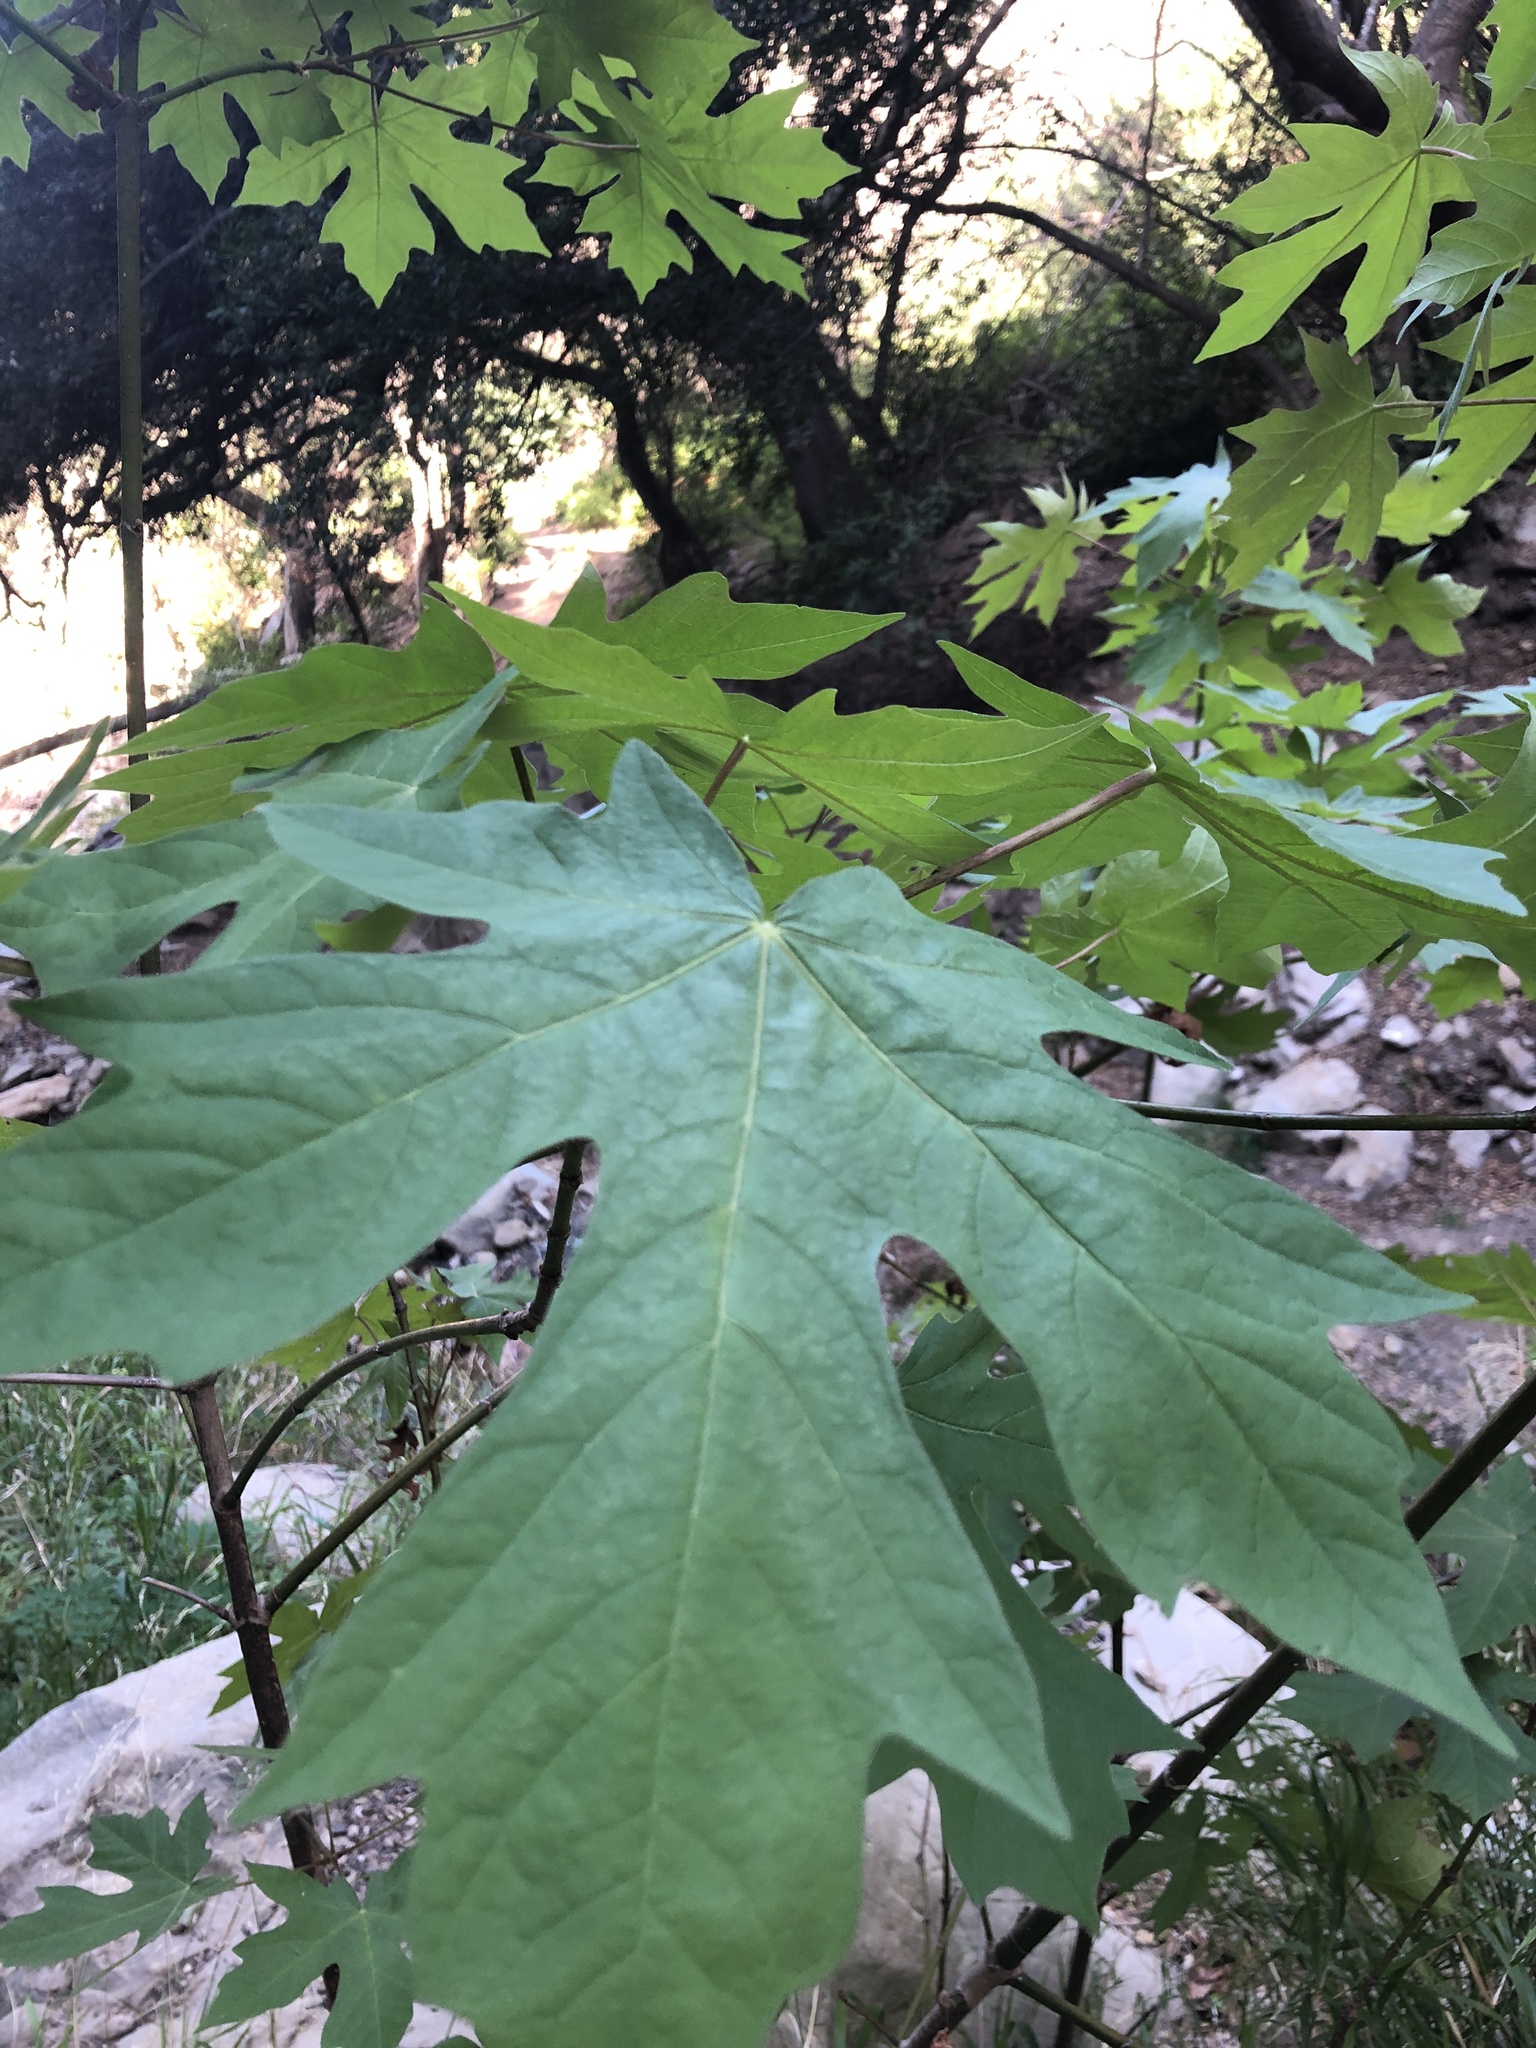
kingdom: Plantae
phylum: Tracheophyta
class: Magnoliopsida
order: Sapindales
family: Sapindaceae
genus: Acer
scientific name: Acer macrophyllum
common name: Oregon maple
